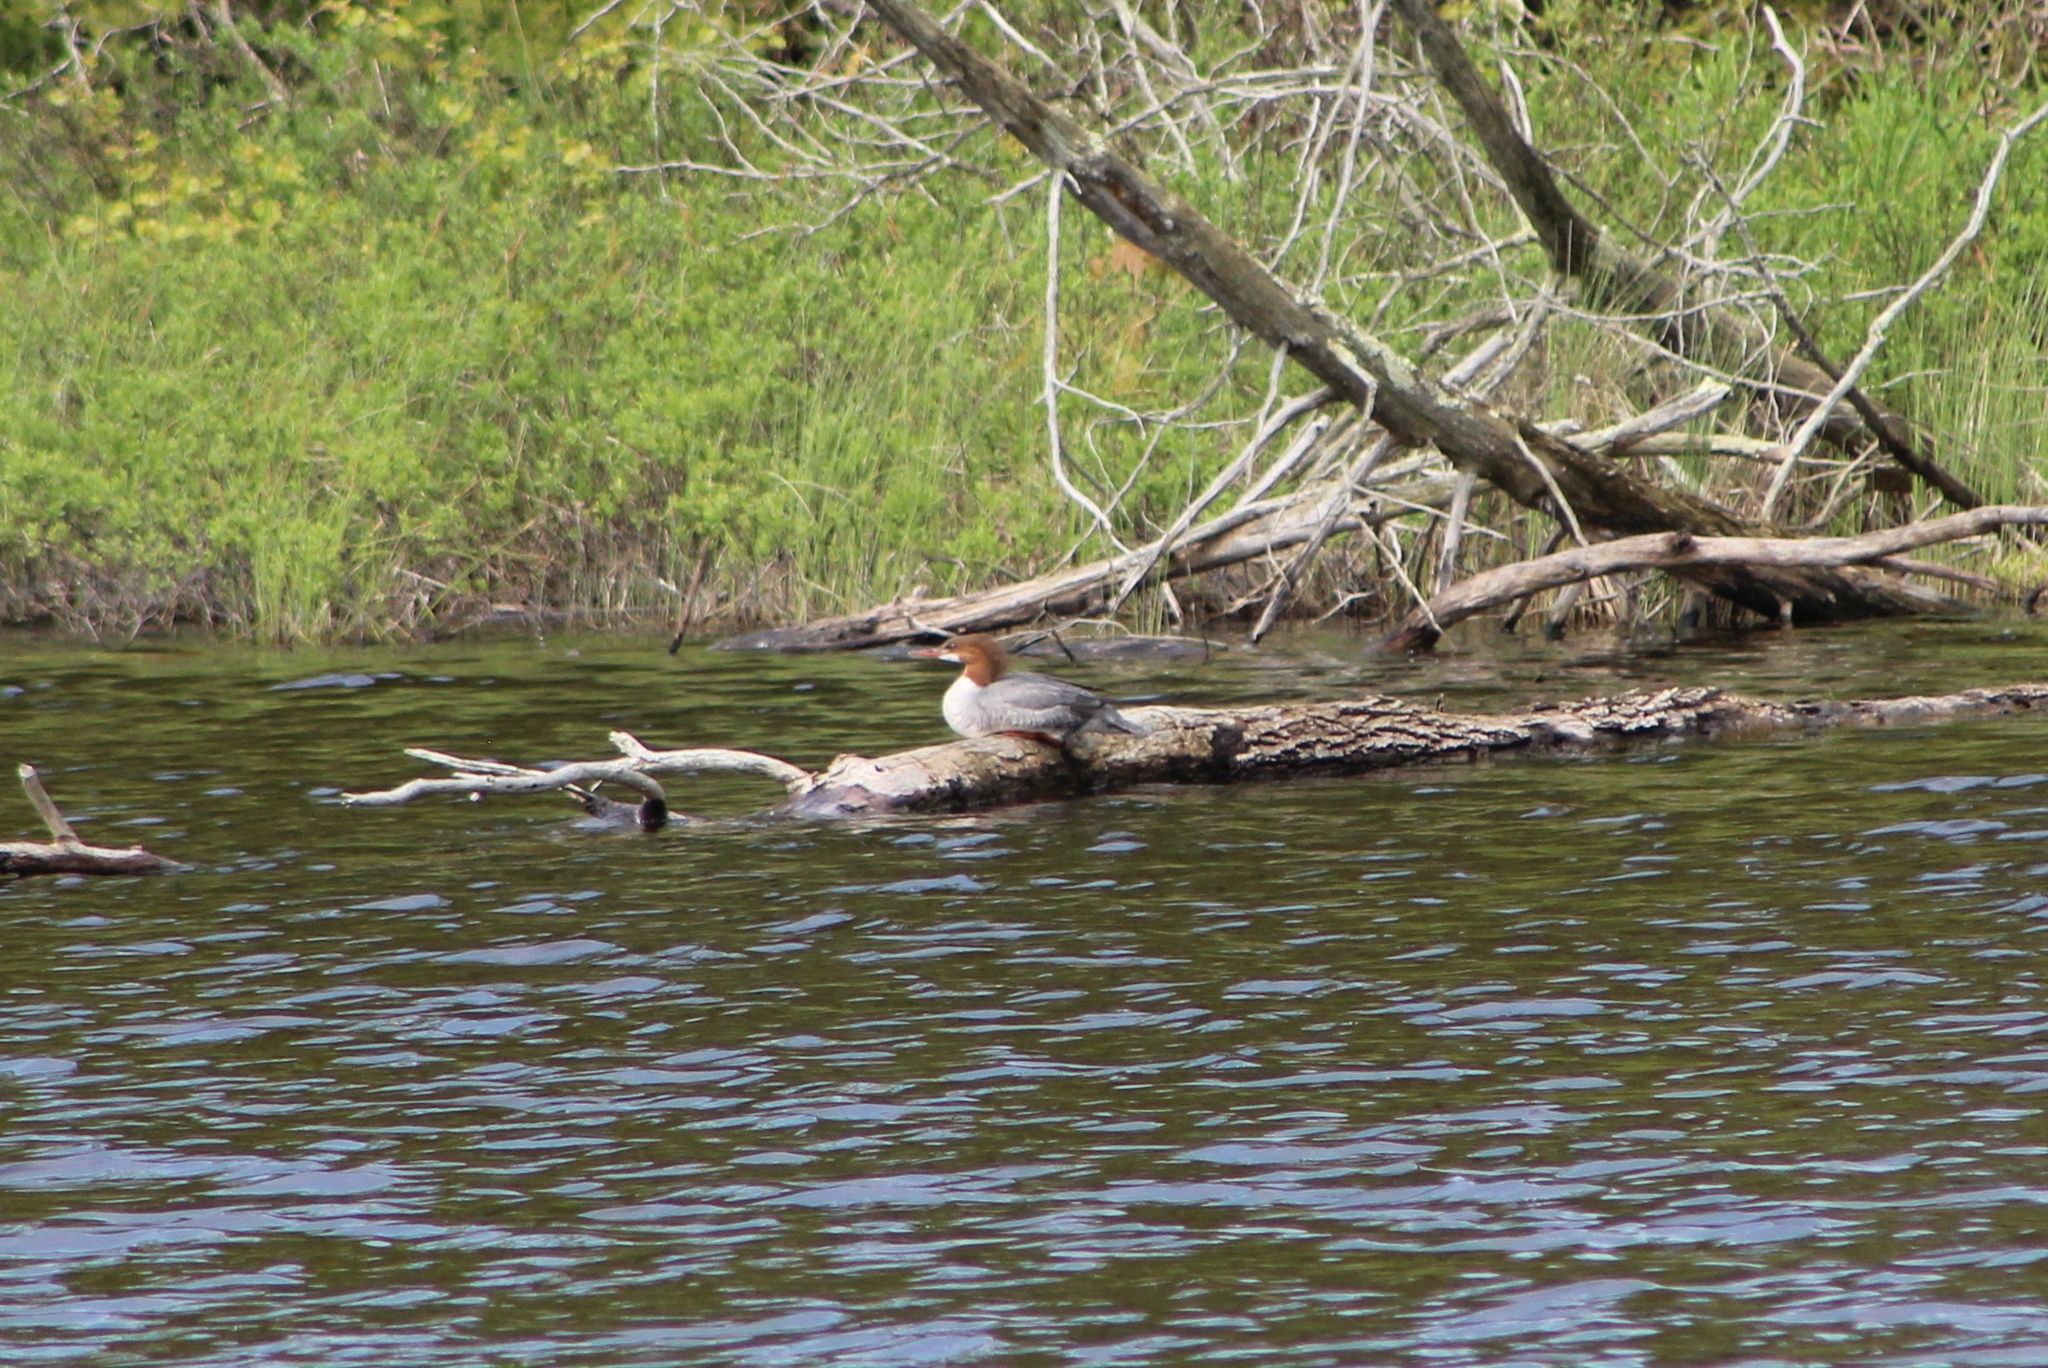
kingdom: Animalia
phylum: Chordata
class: Aves
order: Anseriformes
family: Anatidae
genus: Mergus
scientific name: Mergus merganser
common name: Common merganser
